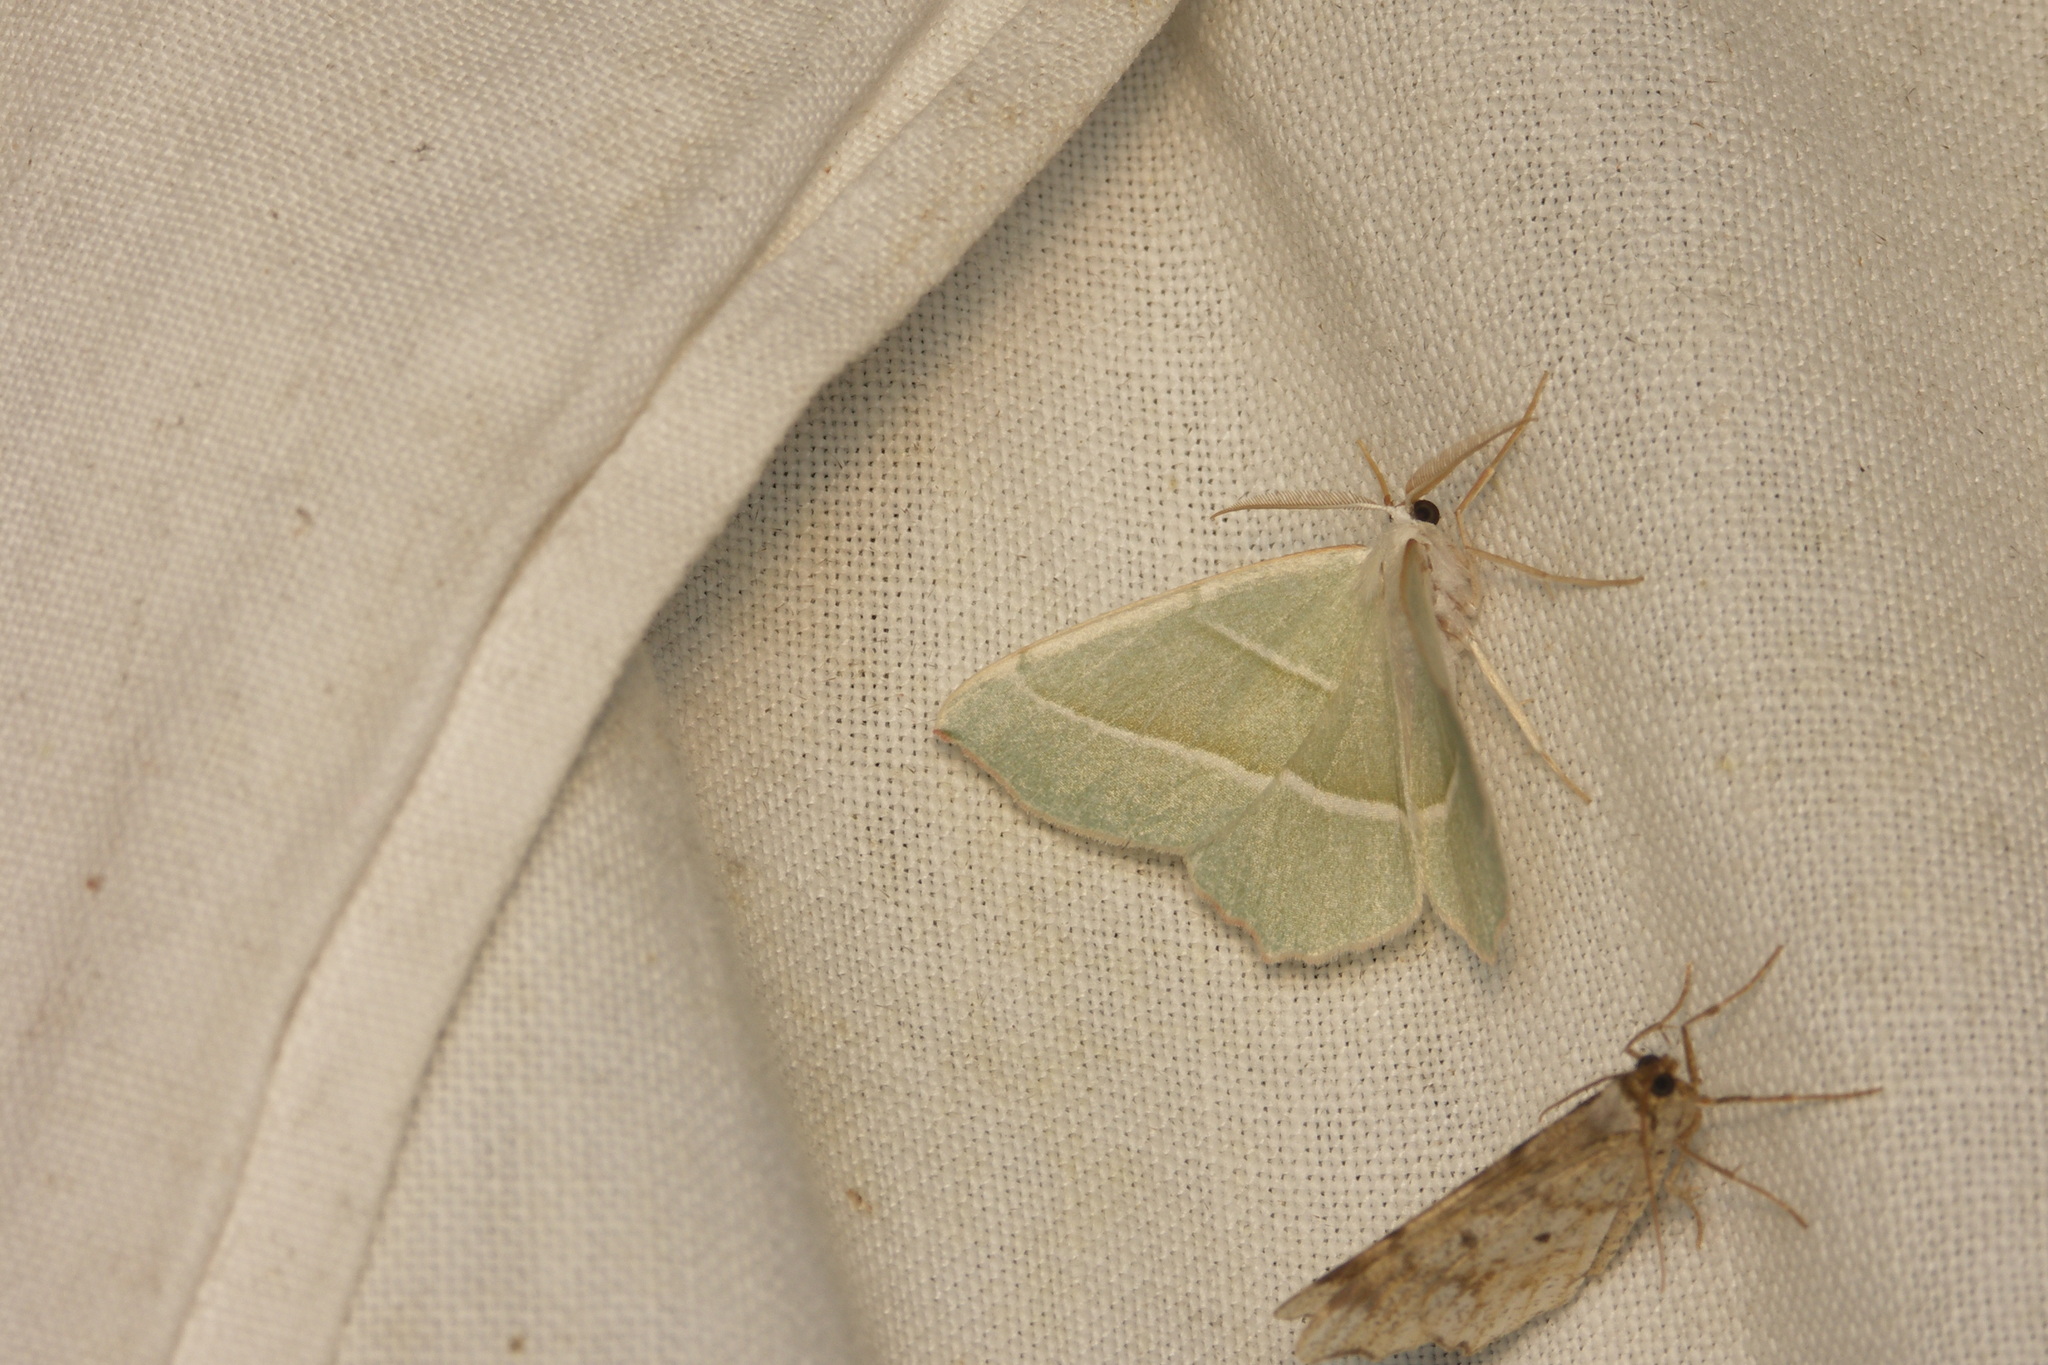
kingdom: Animalia
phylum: Arthropoda
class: Insecta
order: Lepidoptera
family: Geometridae
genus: Campaea
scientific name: Campaea margaritaria
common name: Light emerald
